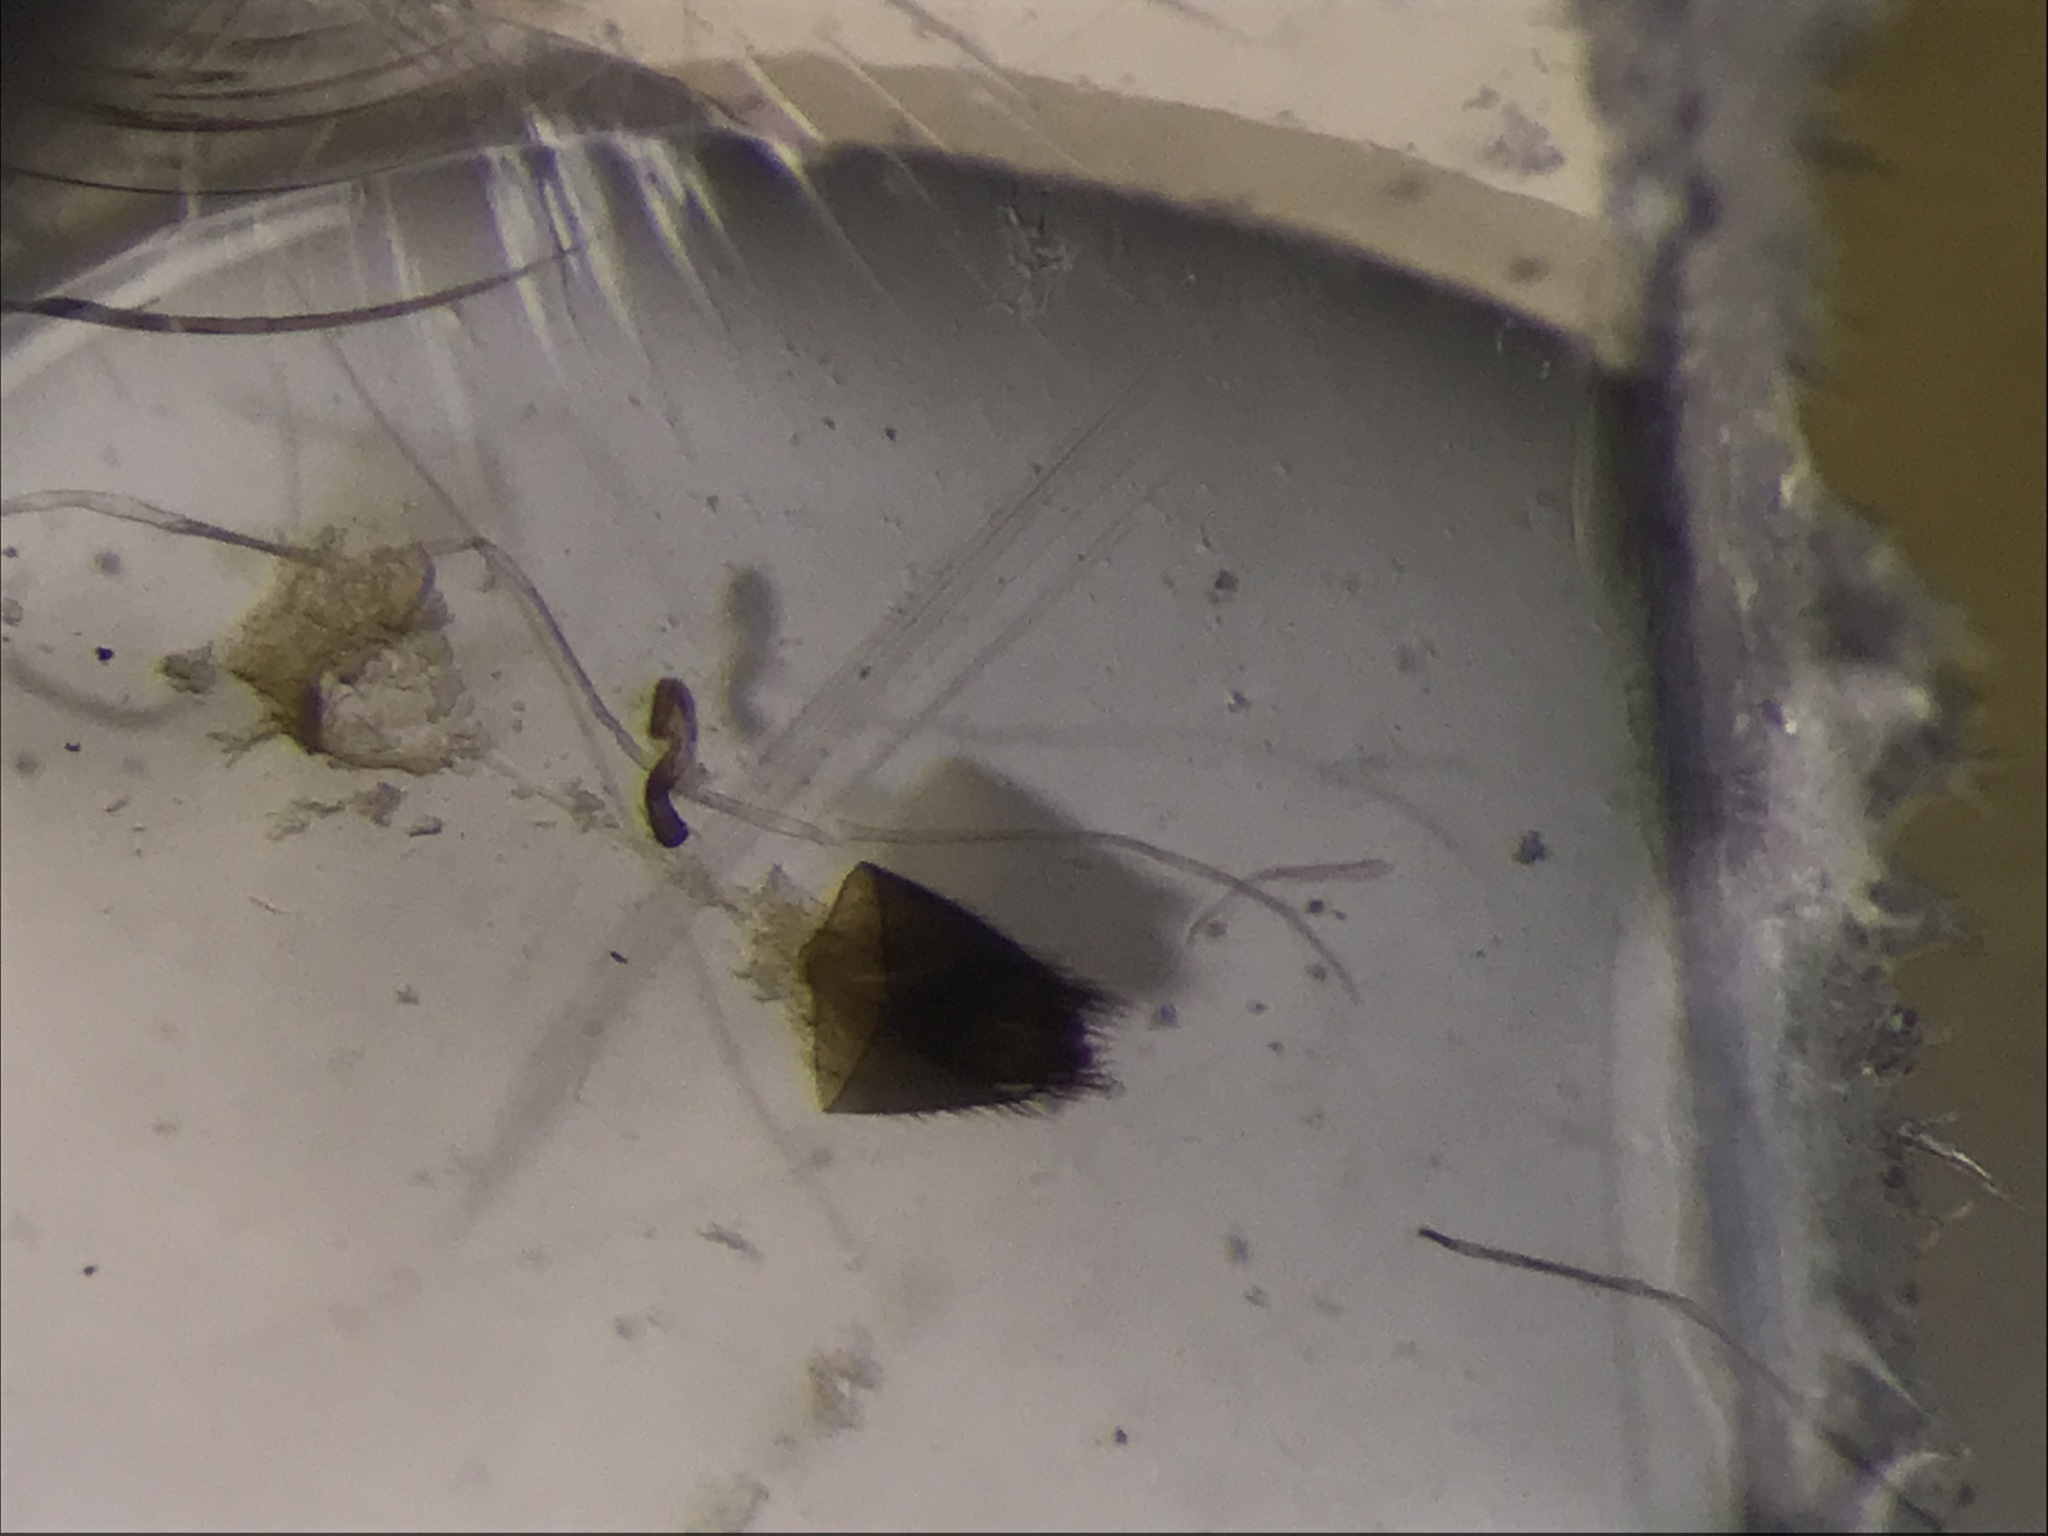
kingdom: Animalia
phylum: Arthropoda
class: Insecta
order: Coleoptera
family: Staphylinidae
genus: Tachyusa
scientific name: Tachyusa americanoides
